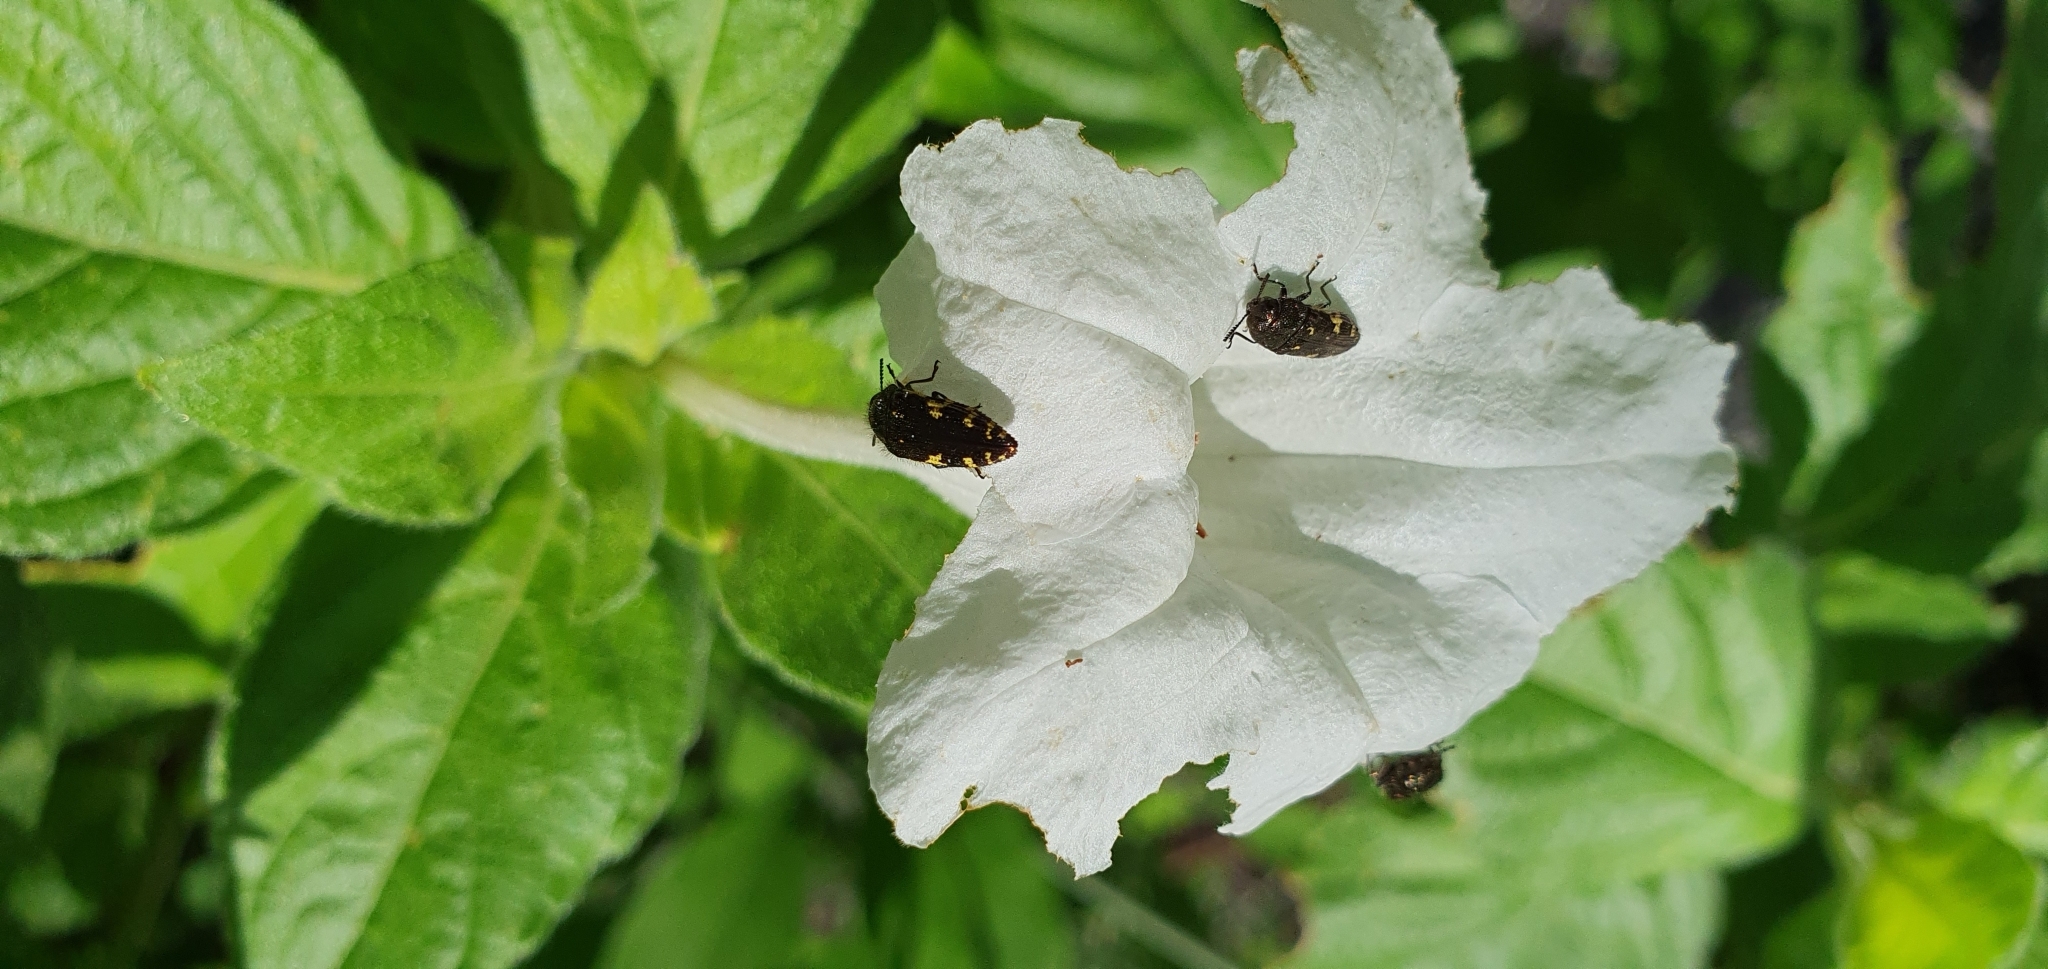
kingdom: Animalia
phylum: Arthropoda
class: Insecta
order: Coleoptera
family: Buprestidae
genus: Acmaeodera
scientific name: Acmaeodera flavosticta
